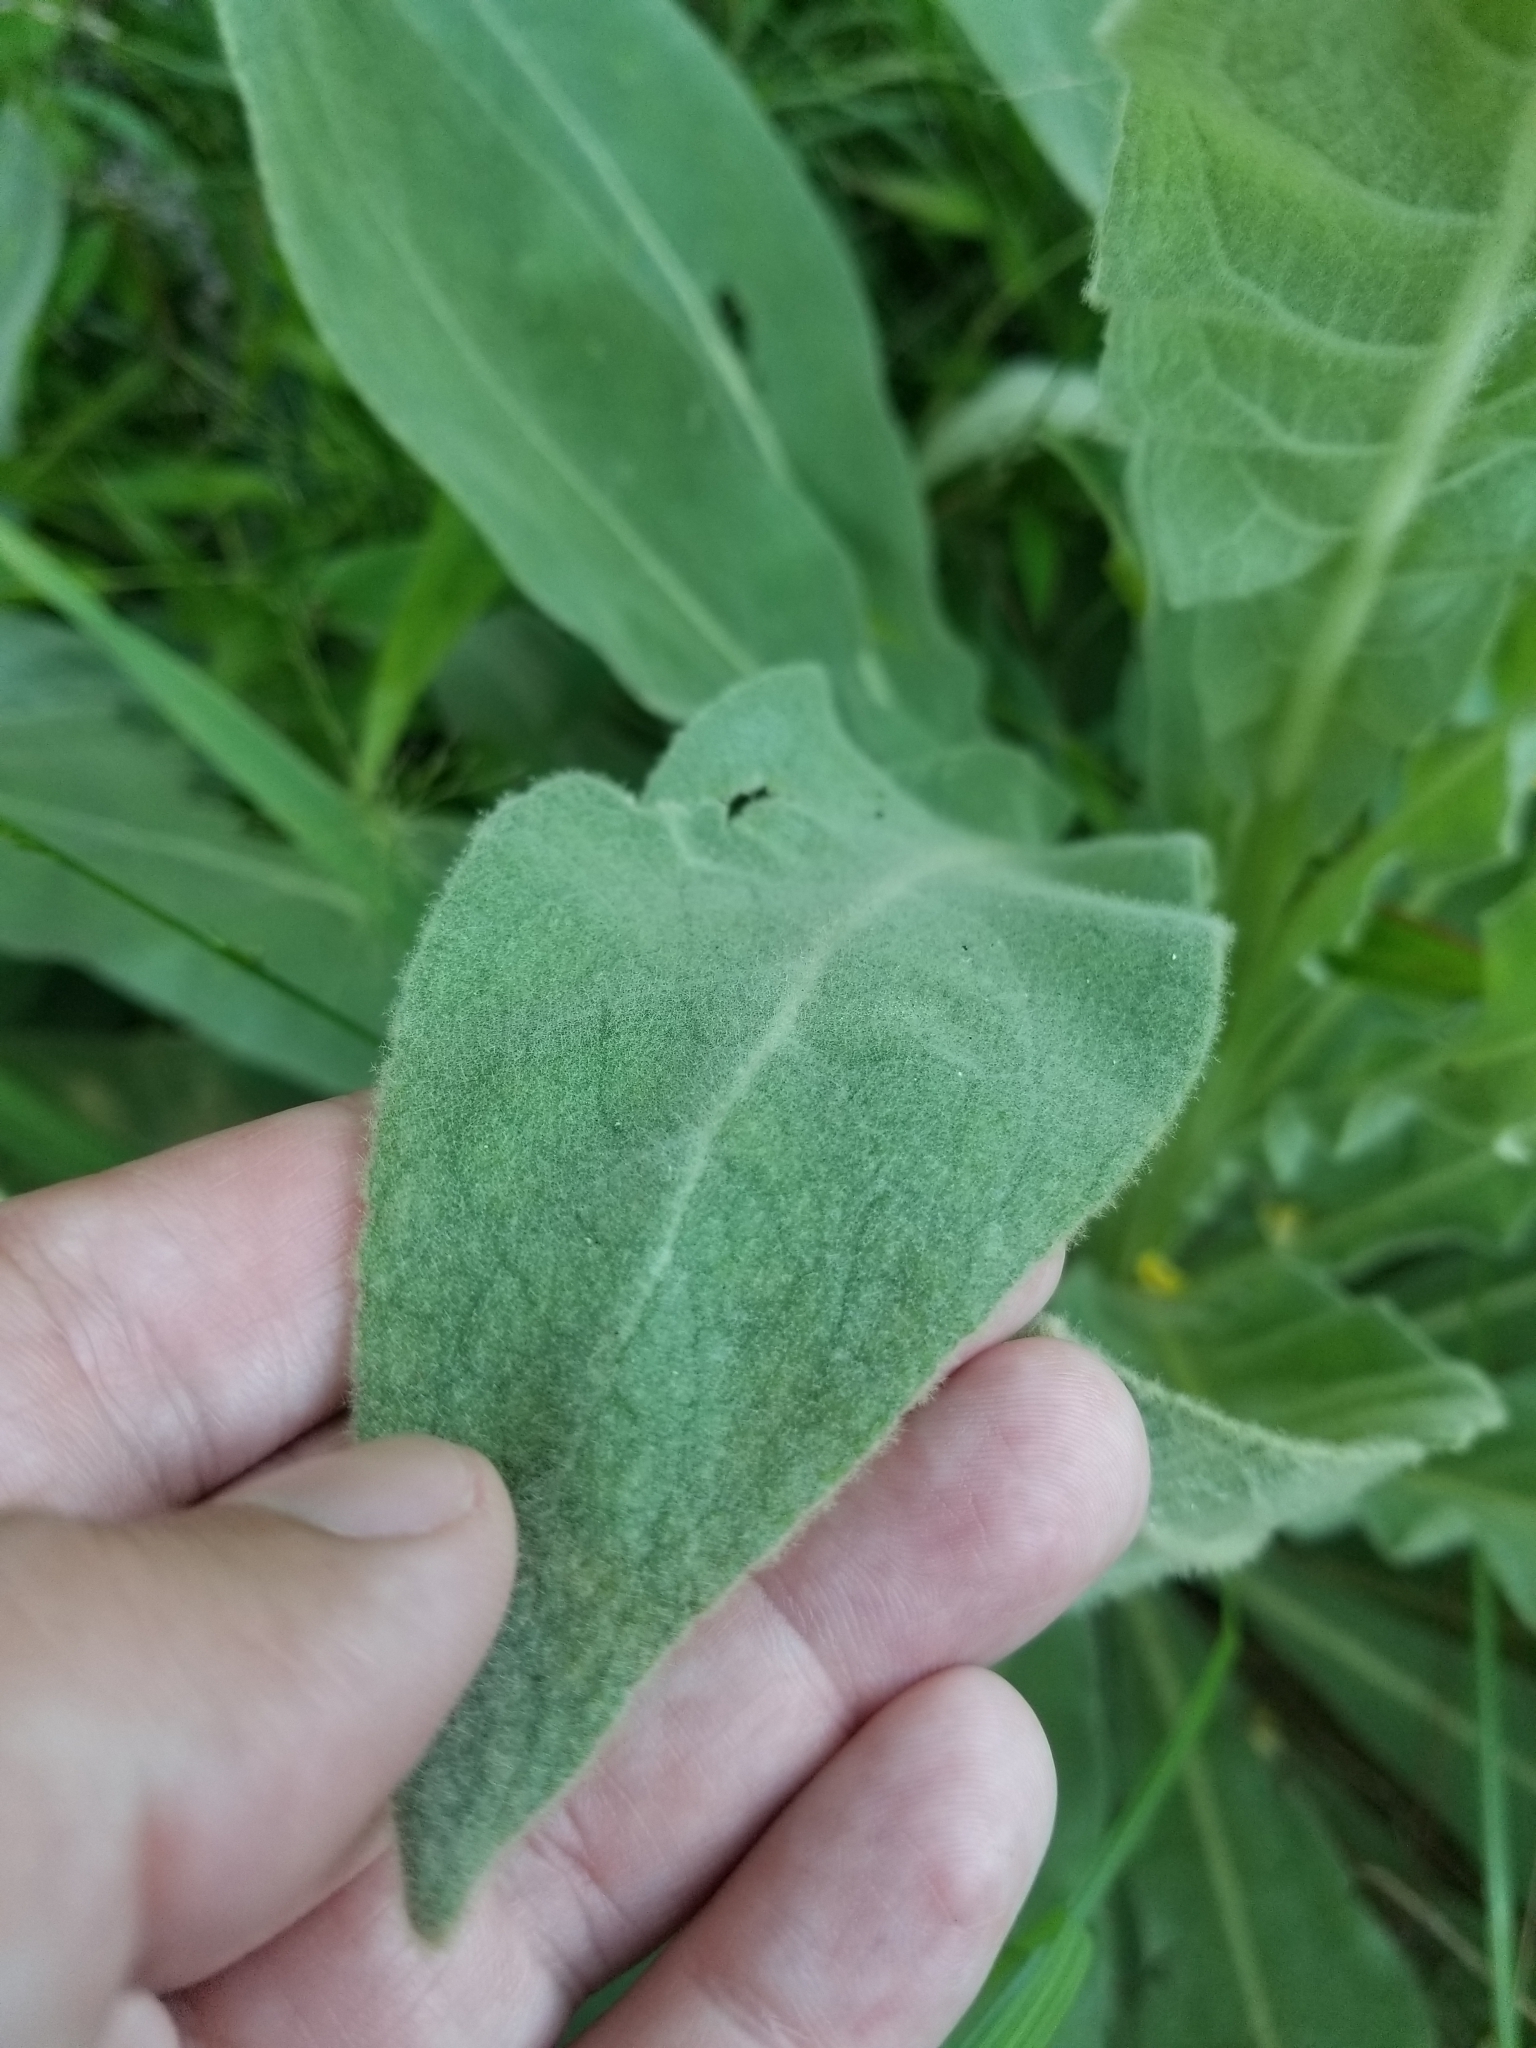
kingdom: Plantae
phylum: Tracheophyta
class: Magnoliopsida
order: Lamiales
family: Scrophulariaceae
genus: Verbascum
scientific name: Verbascum thapsus
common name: Common mullein
